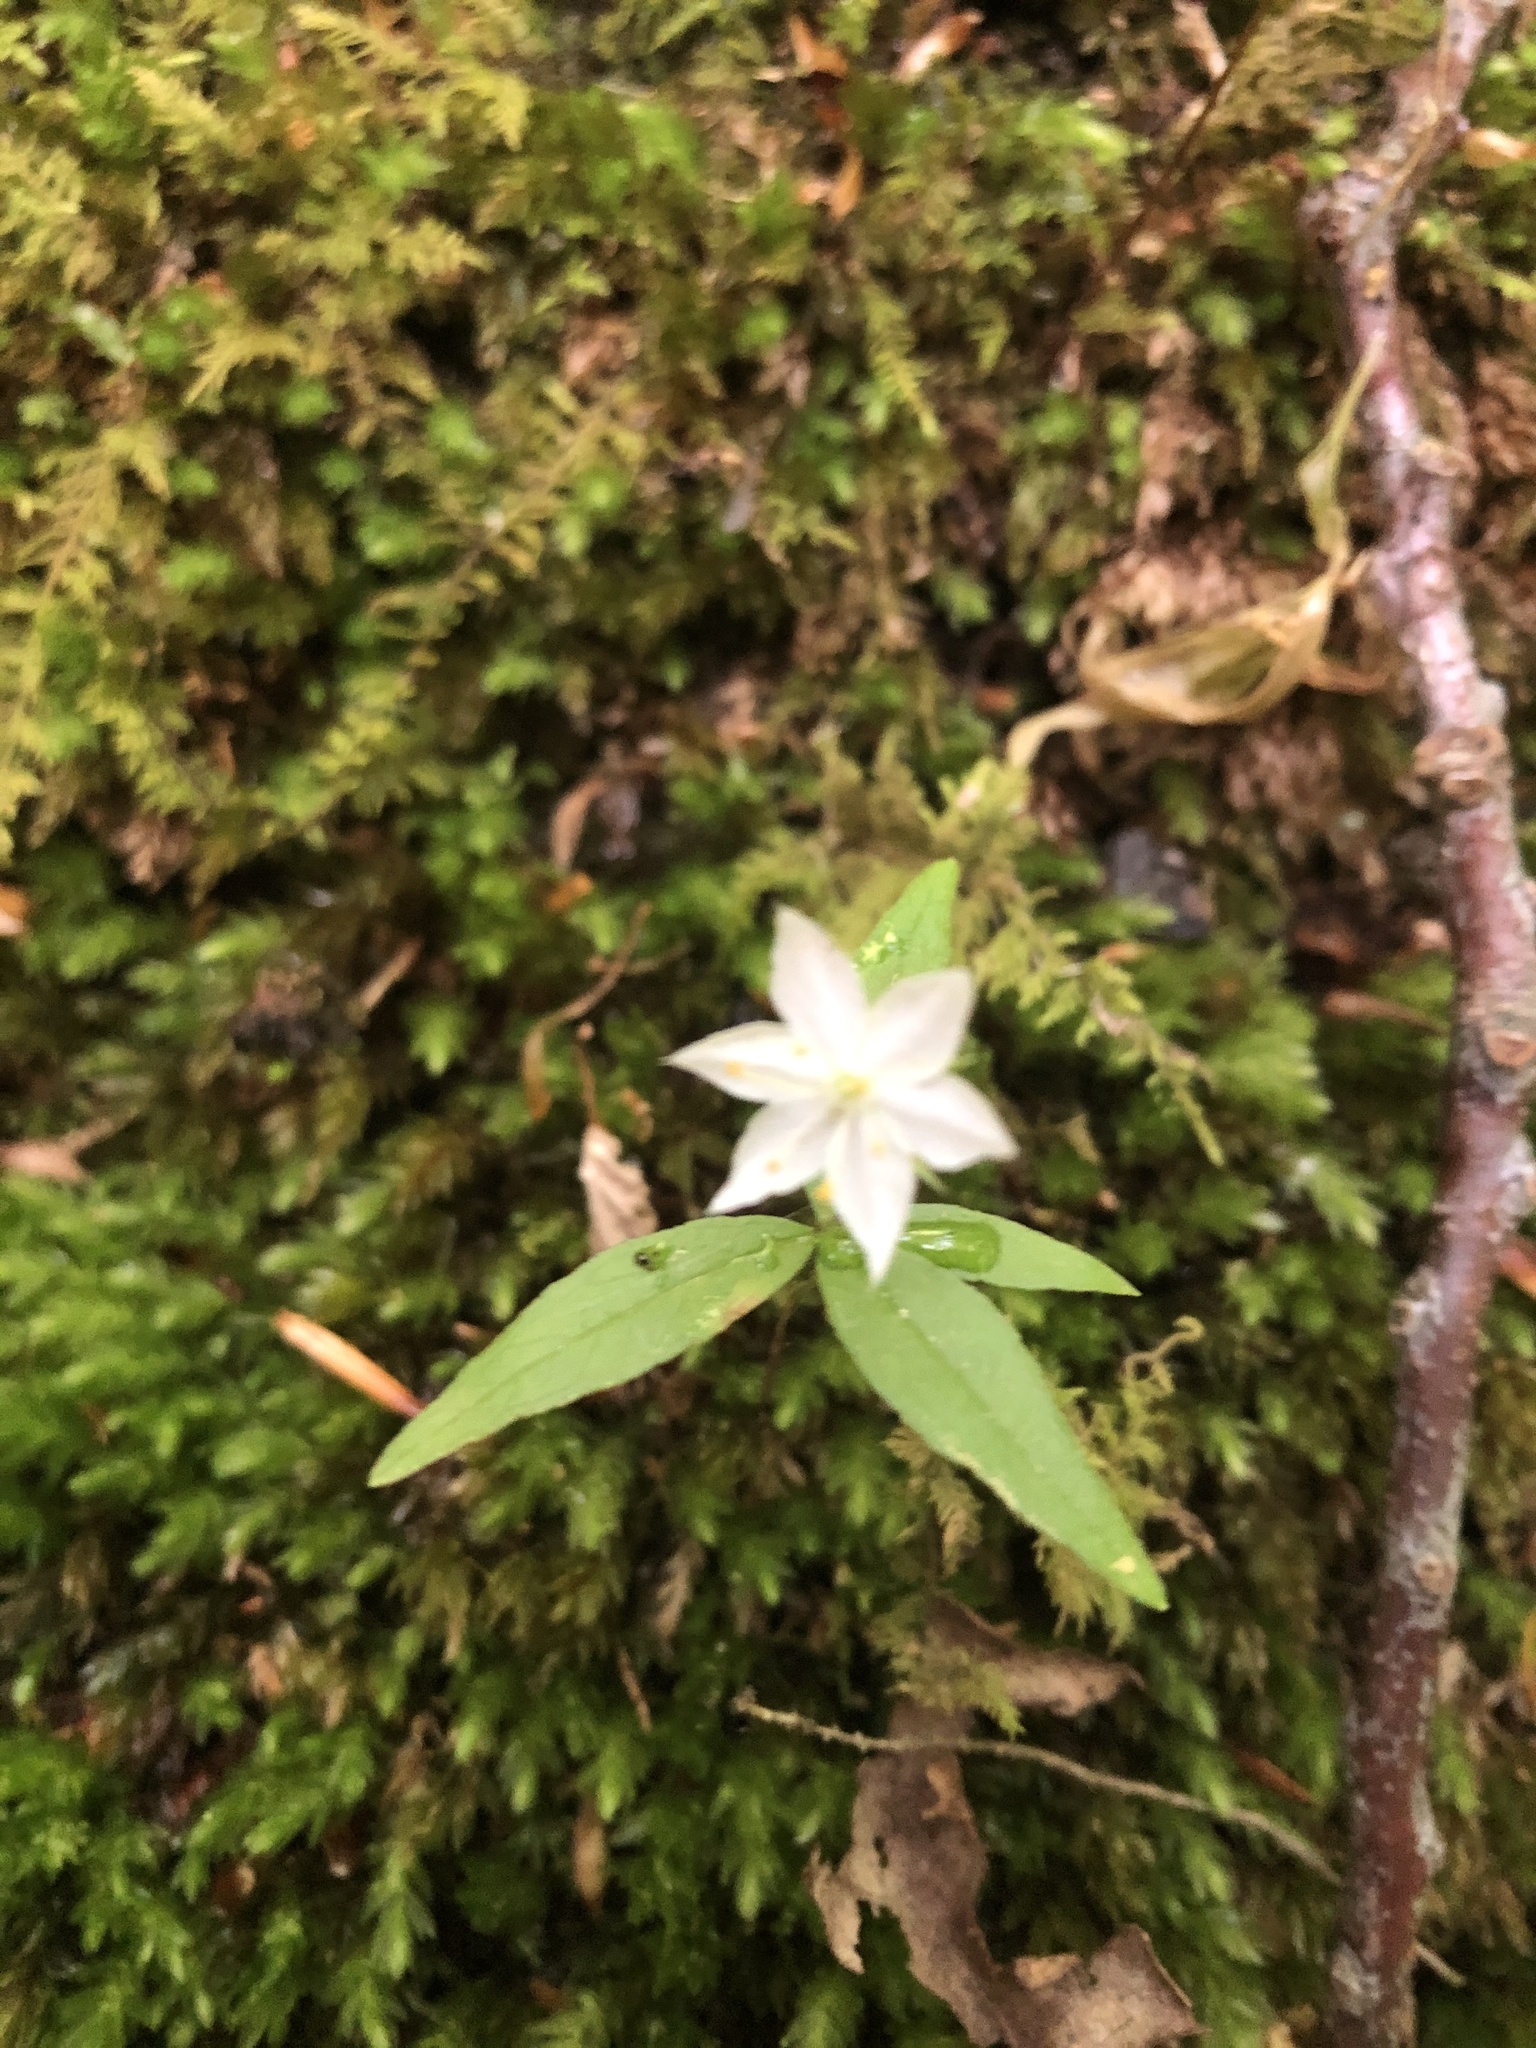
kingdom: Plantae
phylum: Tracheophyta
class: Magnoliopsida
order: Ericales
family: Primulaceae
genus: Lysimachia
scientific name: Lysimachia borealis
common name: American starflower
